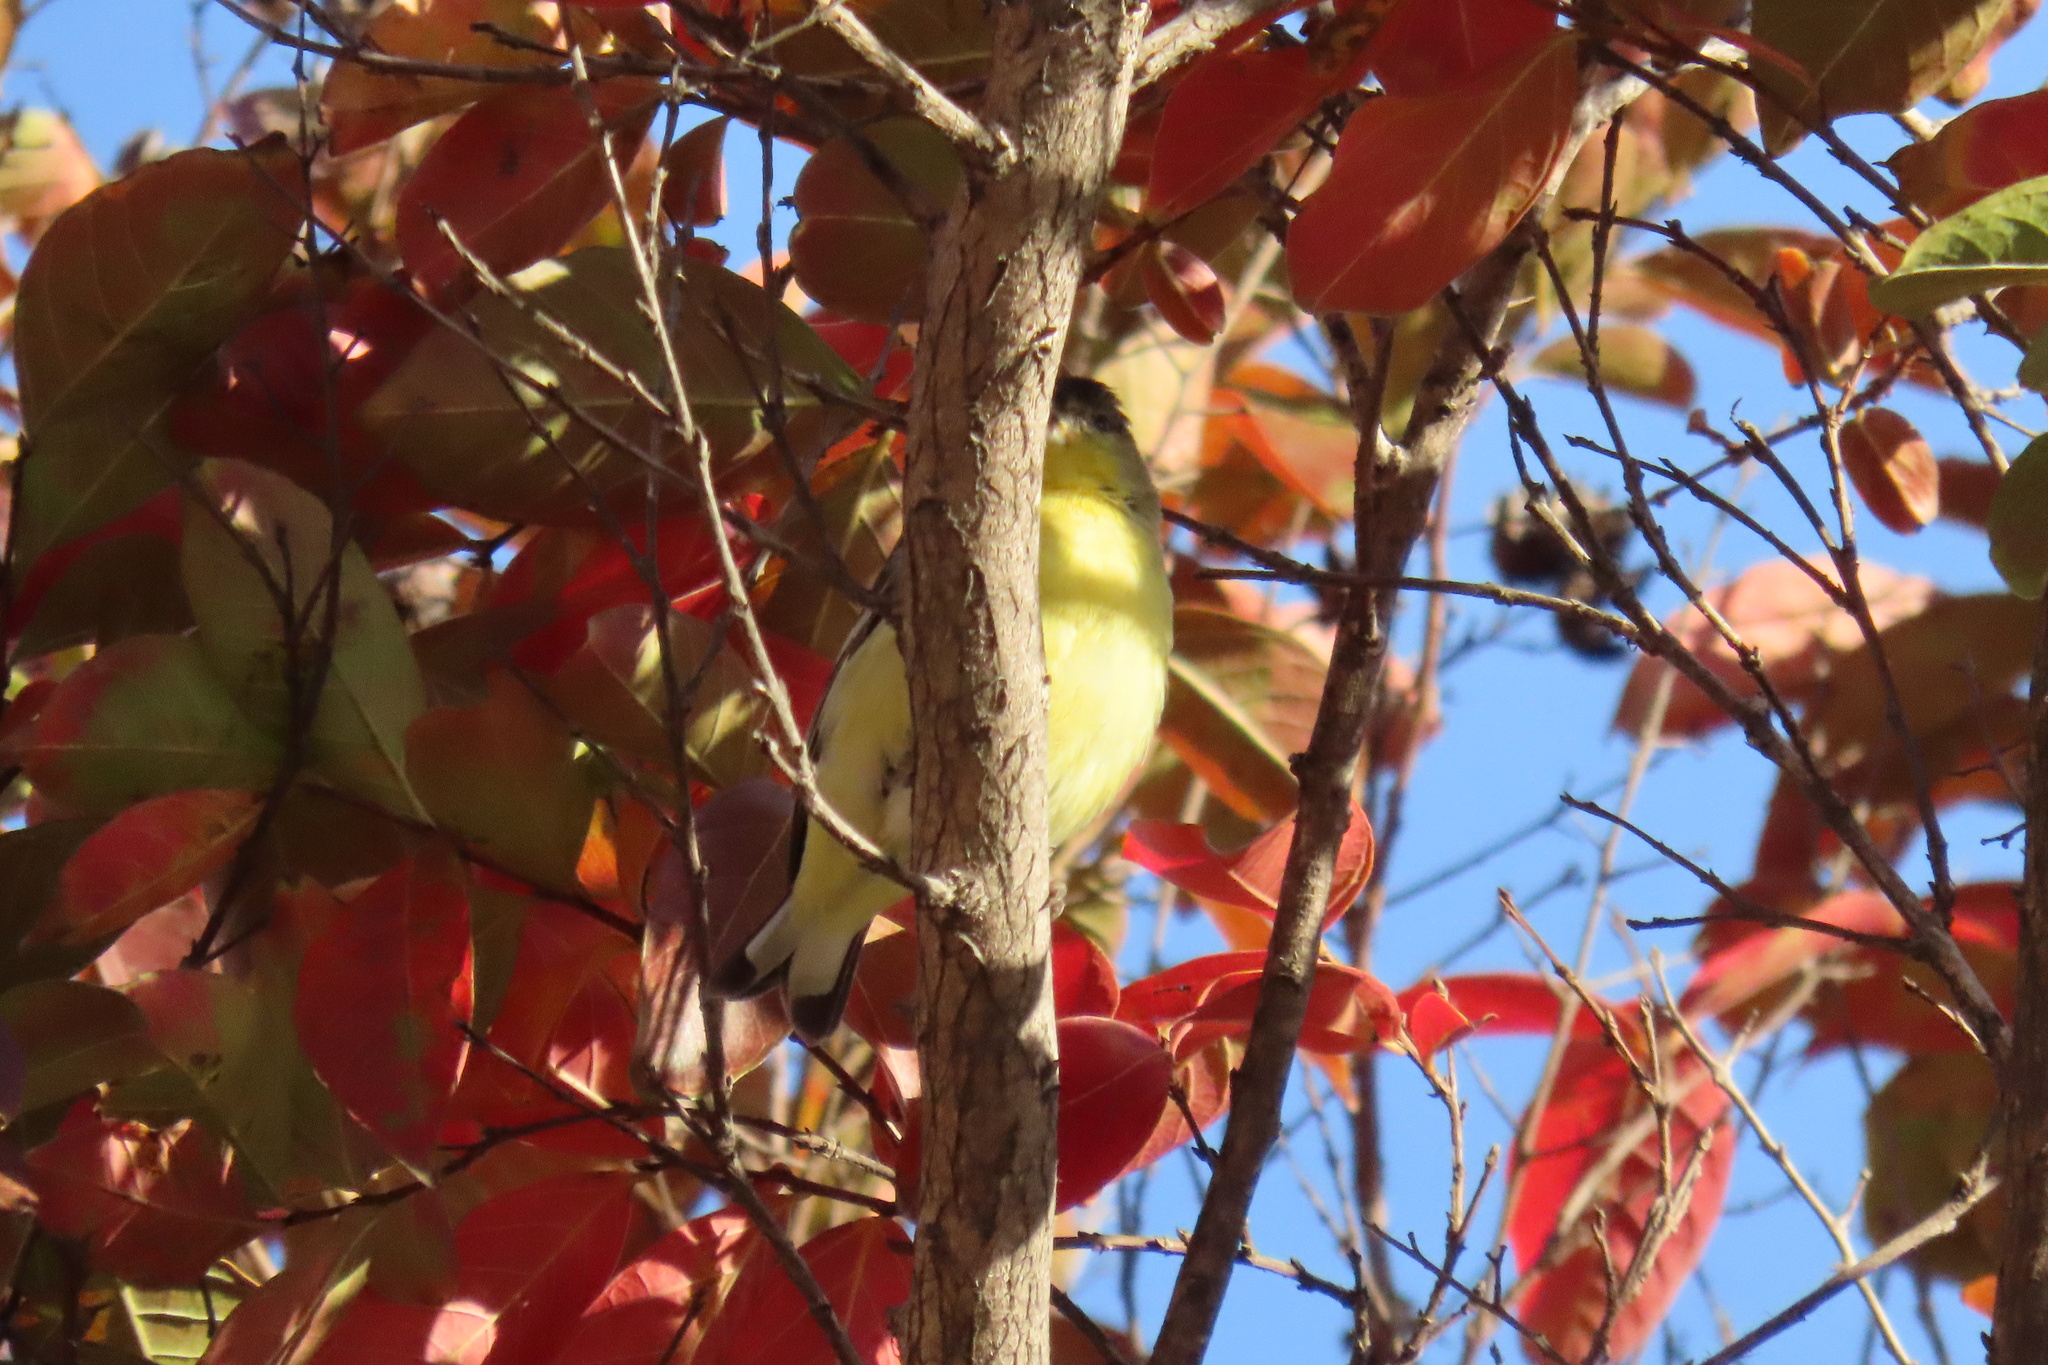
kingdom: Animalia
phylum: Chordata
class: Aves
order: Passeriformes
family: Fringillidae
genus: Spinus
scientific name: Spinus psaltria
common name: Lesser goldfinch
